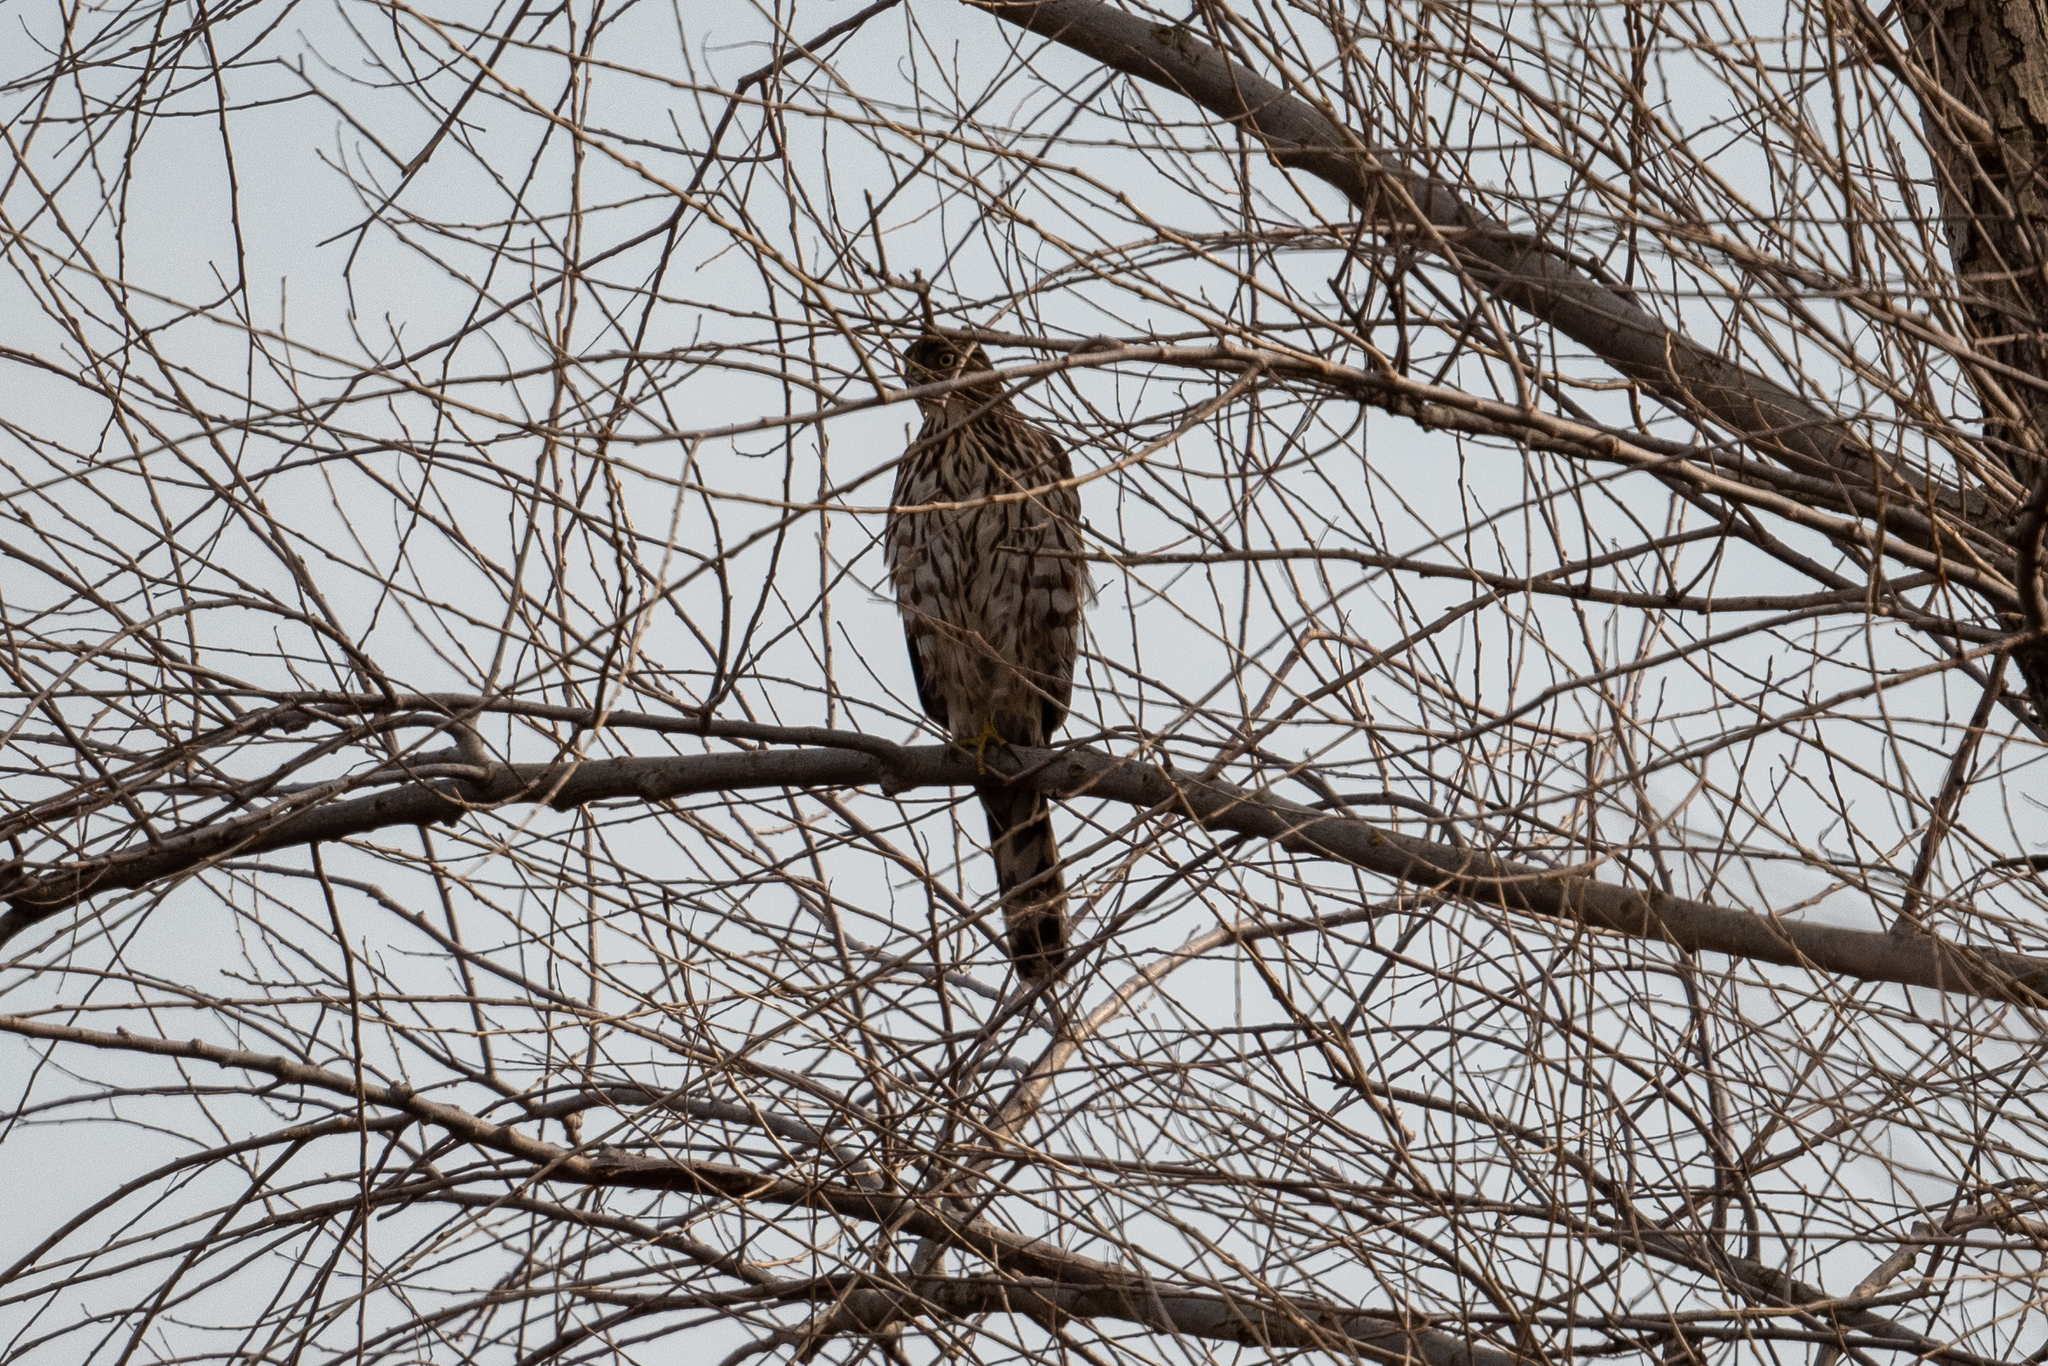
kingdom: Animalia
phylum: Chordata
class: Aves
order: Accipitriformes
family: Accipitridae
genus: Accipiter
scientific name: Accipiter cooperii
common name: Cooper's hawk
